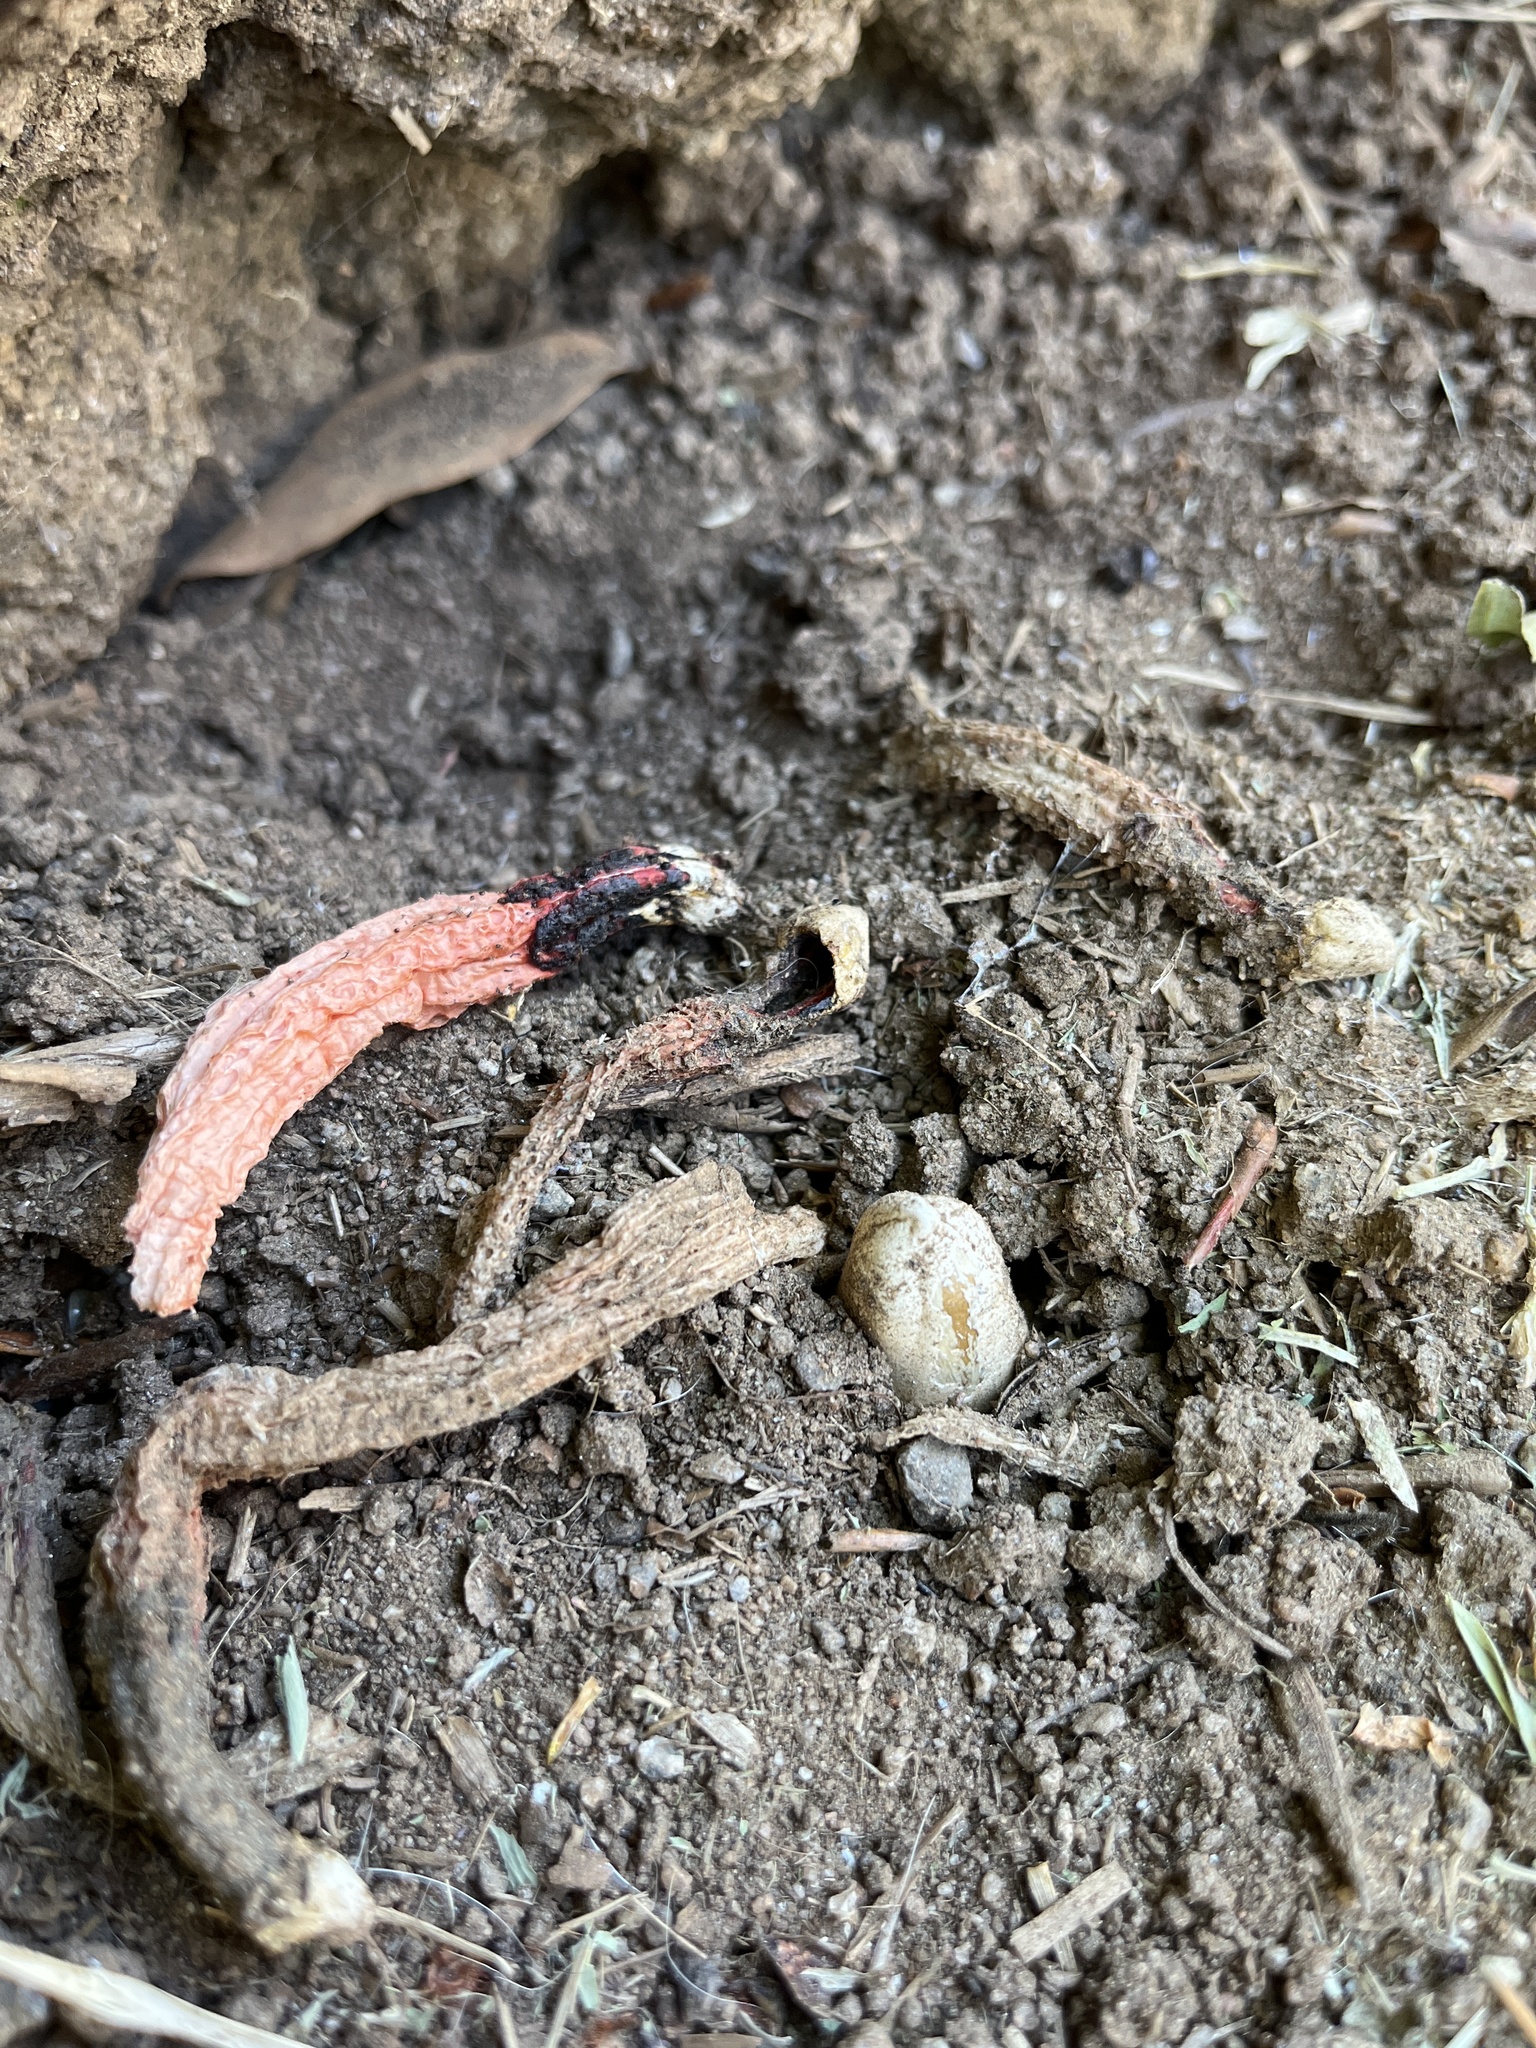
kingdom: Fungi
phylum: Basidiomycota
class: Agaricomycetes
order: Phallales
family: Phallaceae
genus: Lysurus
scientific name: Lysurus mokusin
